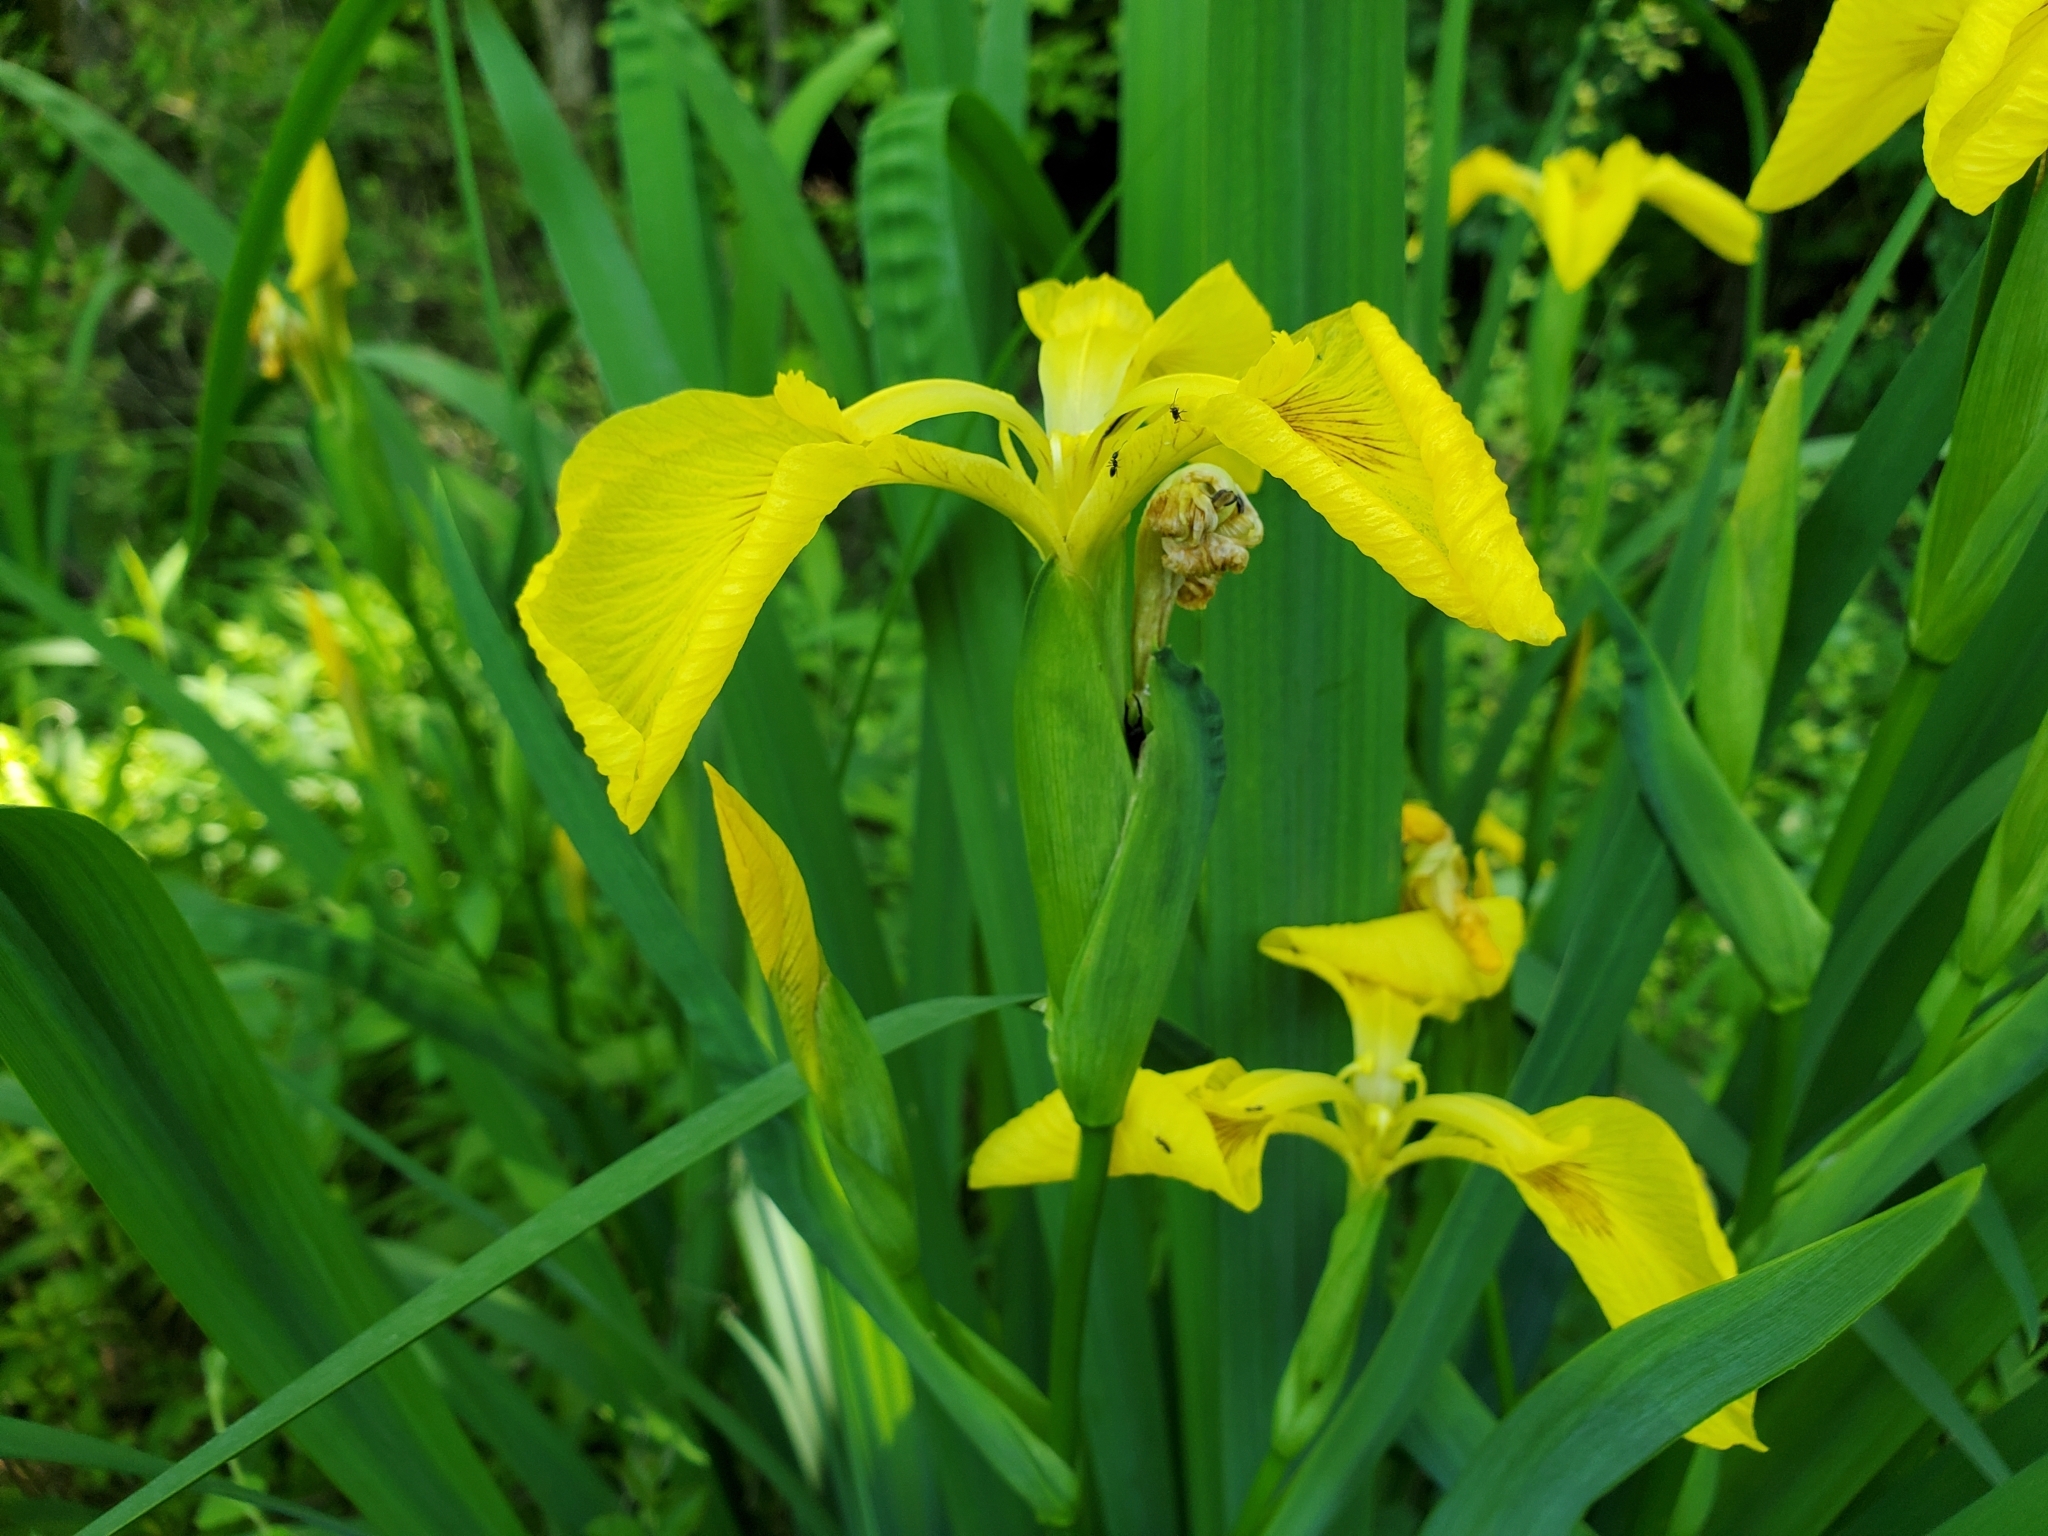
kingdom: Plantae
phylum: Tracheophyta
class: Liliopsida
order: Asparagales
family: Iridaceae
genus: Iris
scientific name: Iris pseudacorus
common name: Yellow flag
